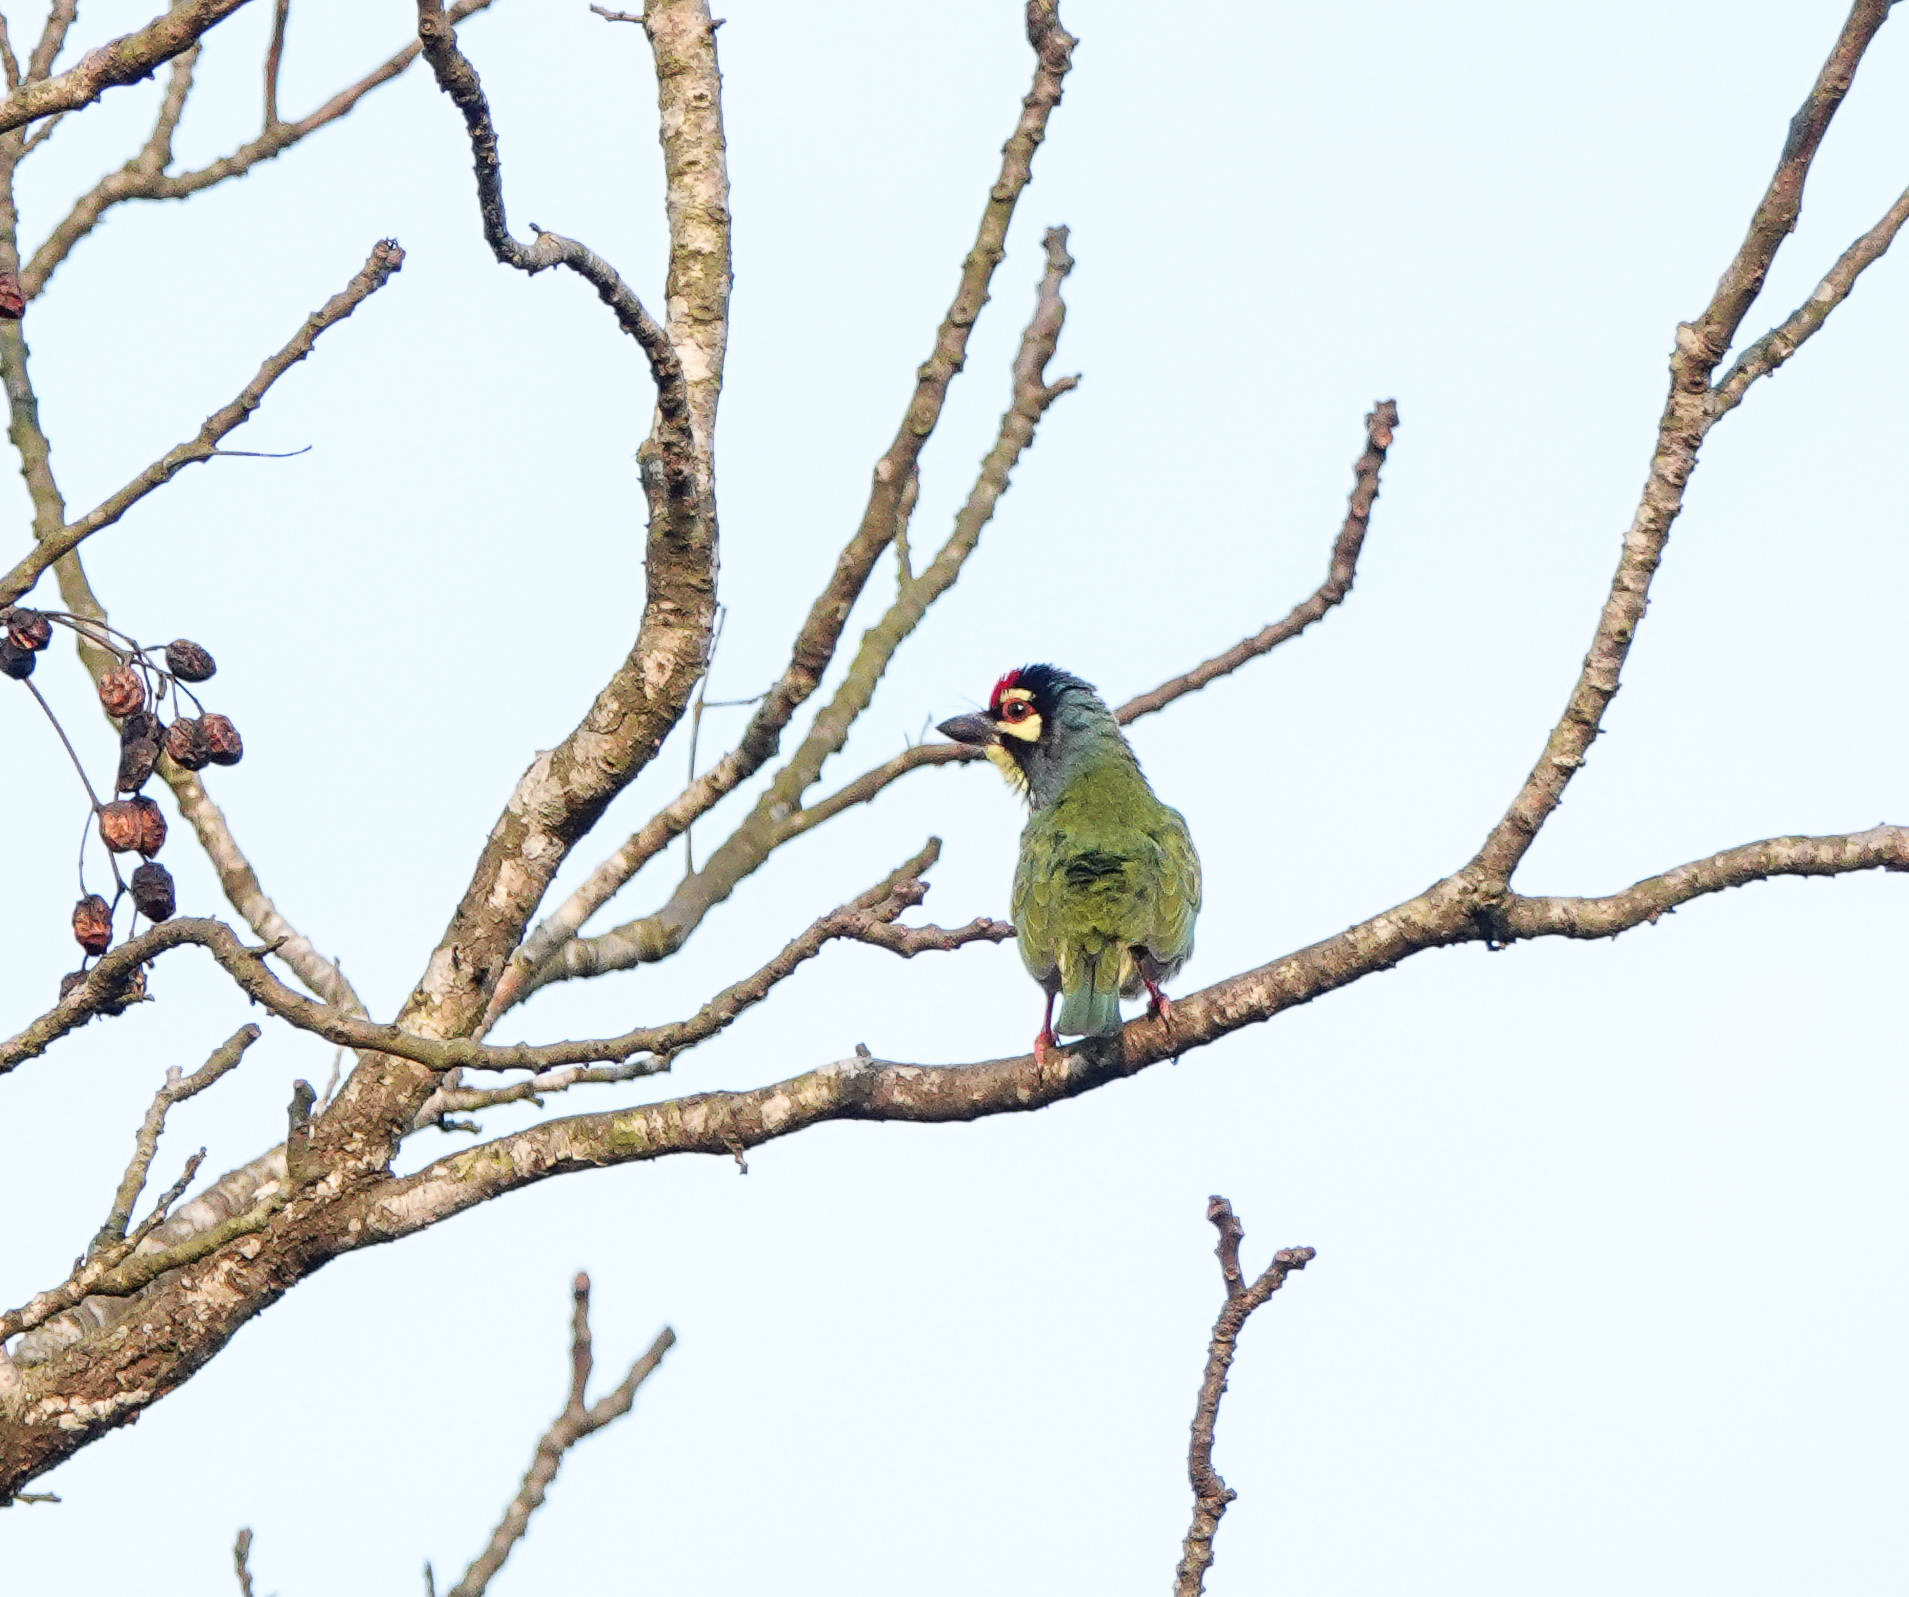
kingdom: Animalia
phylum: Chordata
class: Aves
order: Piciformes
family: Megalaimidae
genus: Psilopogon
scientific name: Psilopogon haemacephalus
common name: Coppersmith barbet
